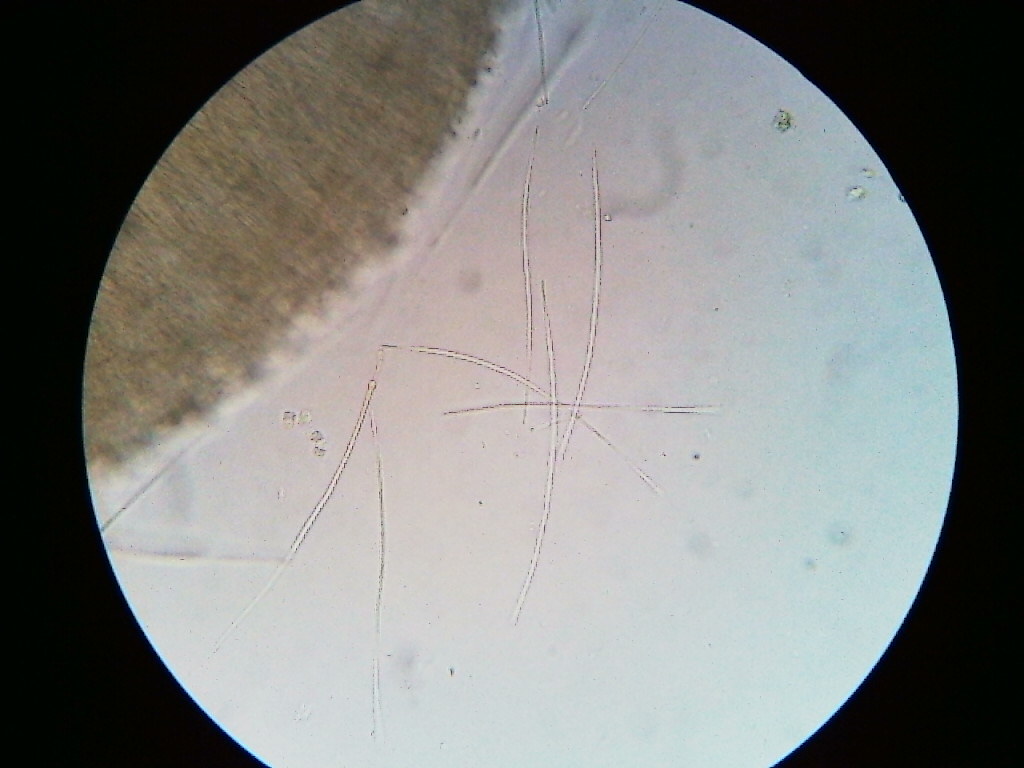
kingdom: Fungi
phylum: Ascomycota
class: Leotiomycetes
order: Helotiales
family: Vibrisseaceae
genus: Vibrissea
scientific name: Vibrissea pezizoides
